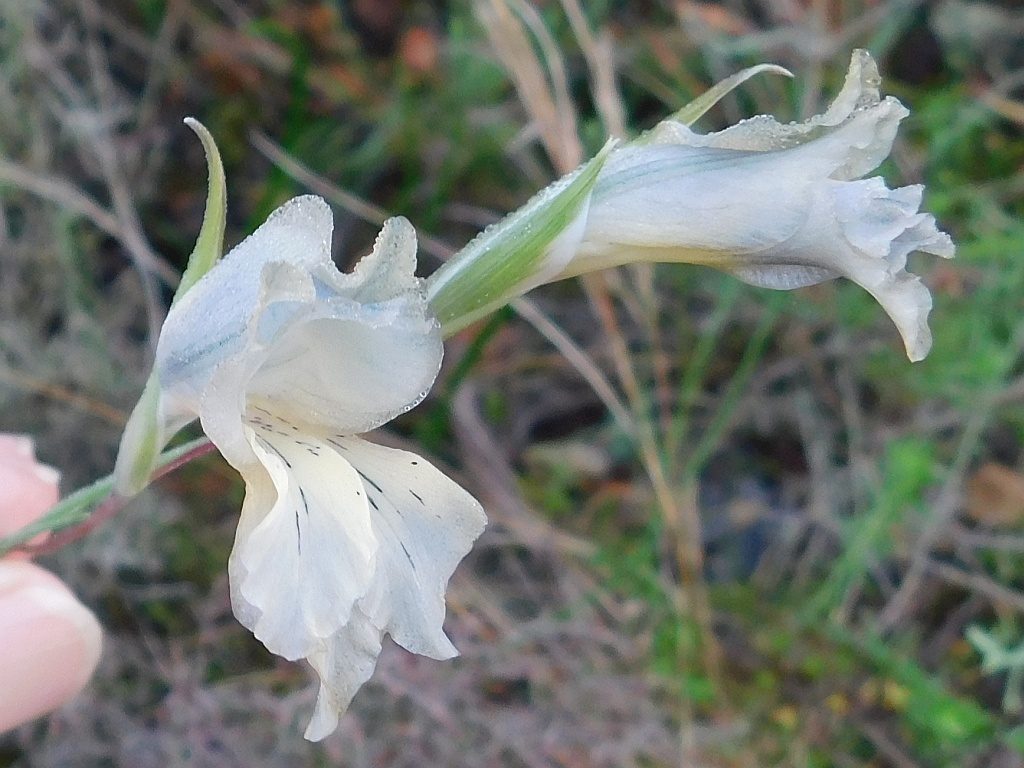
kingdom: Plantae
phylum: Tracheophyta
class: Liliopsida
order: Asparagales
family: Iridaceae
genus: Gladiolus
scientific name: Gladiolus gracilis
